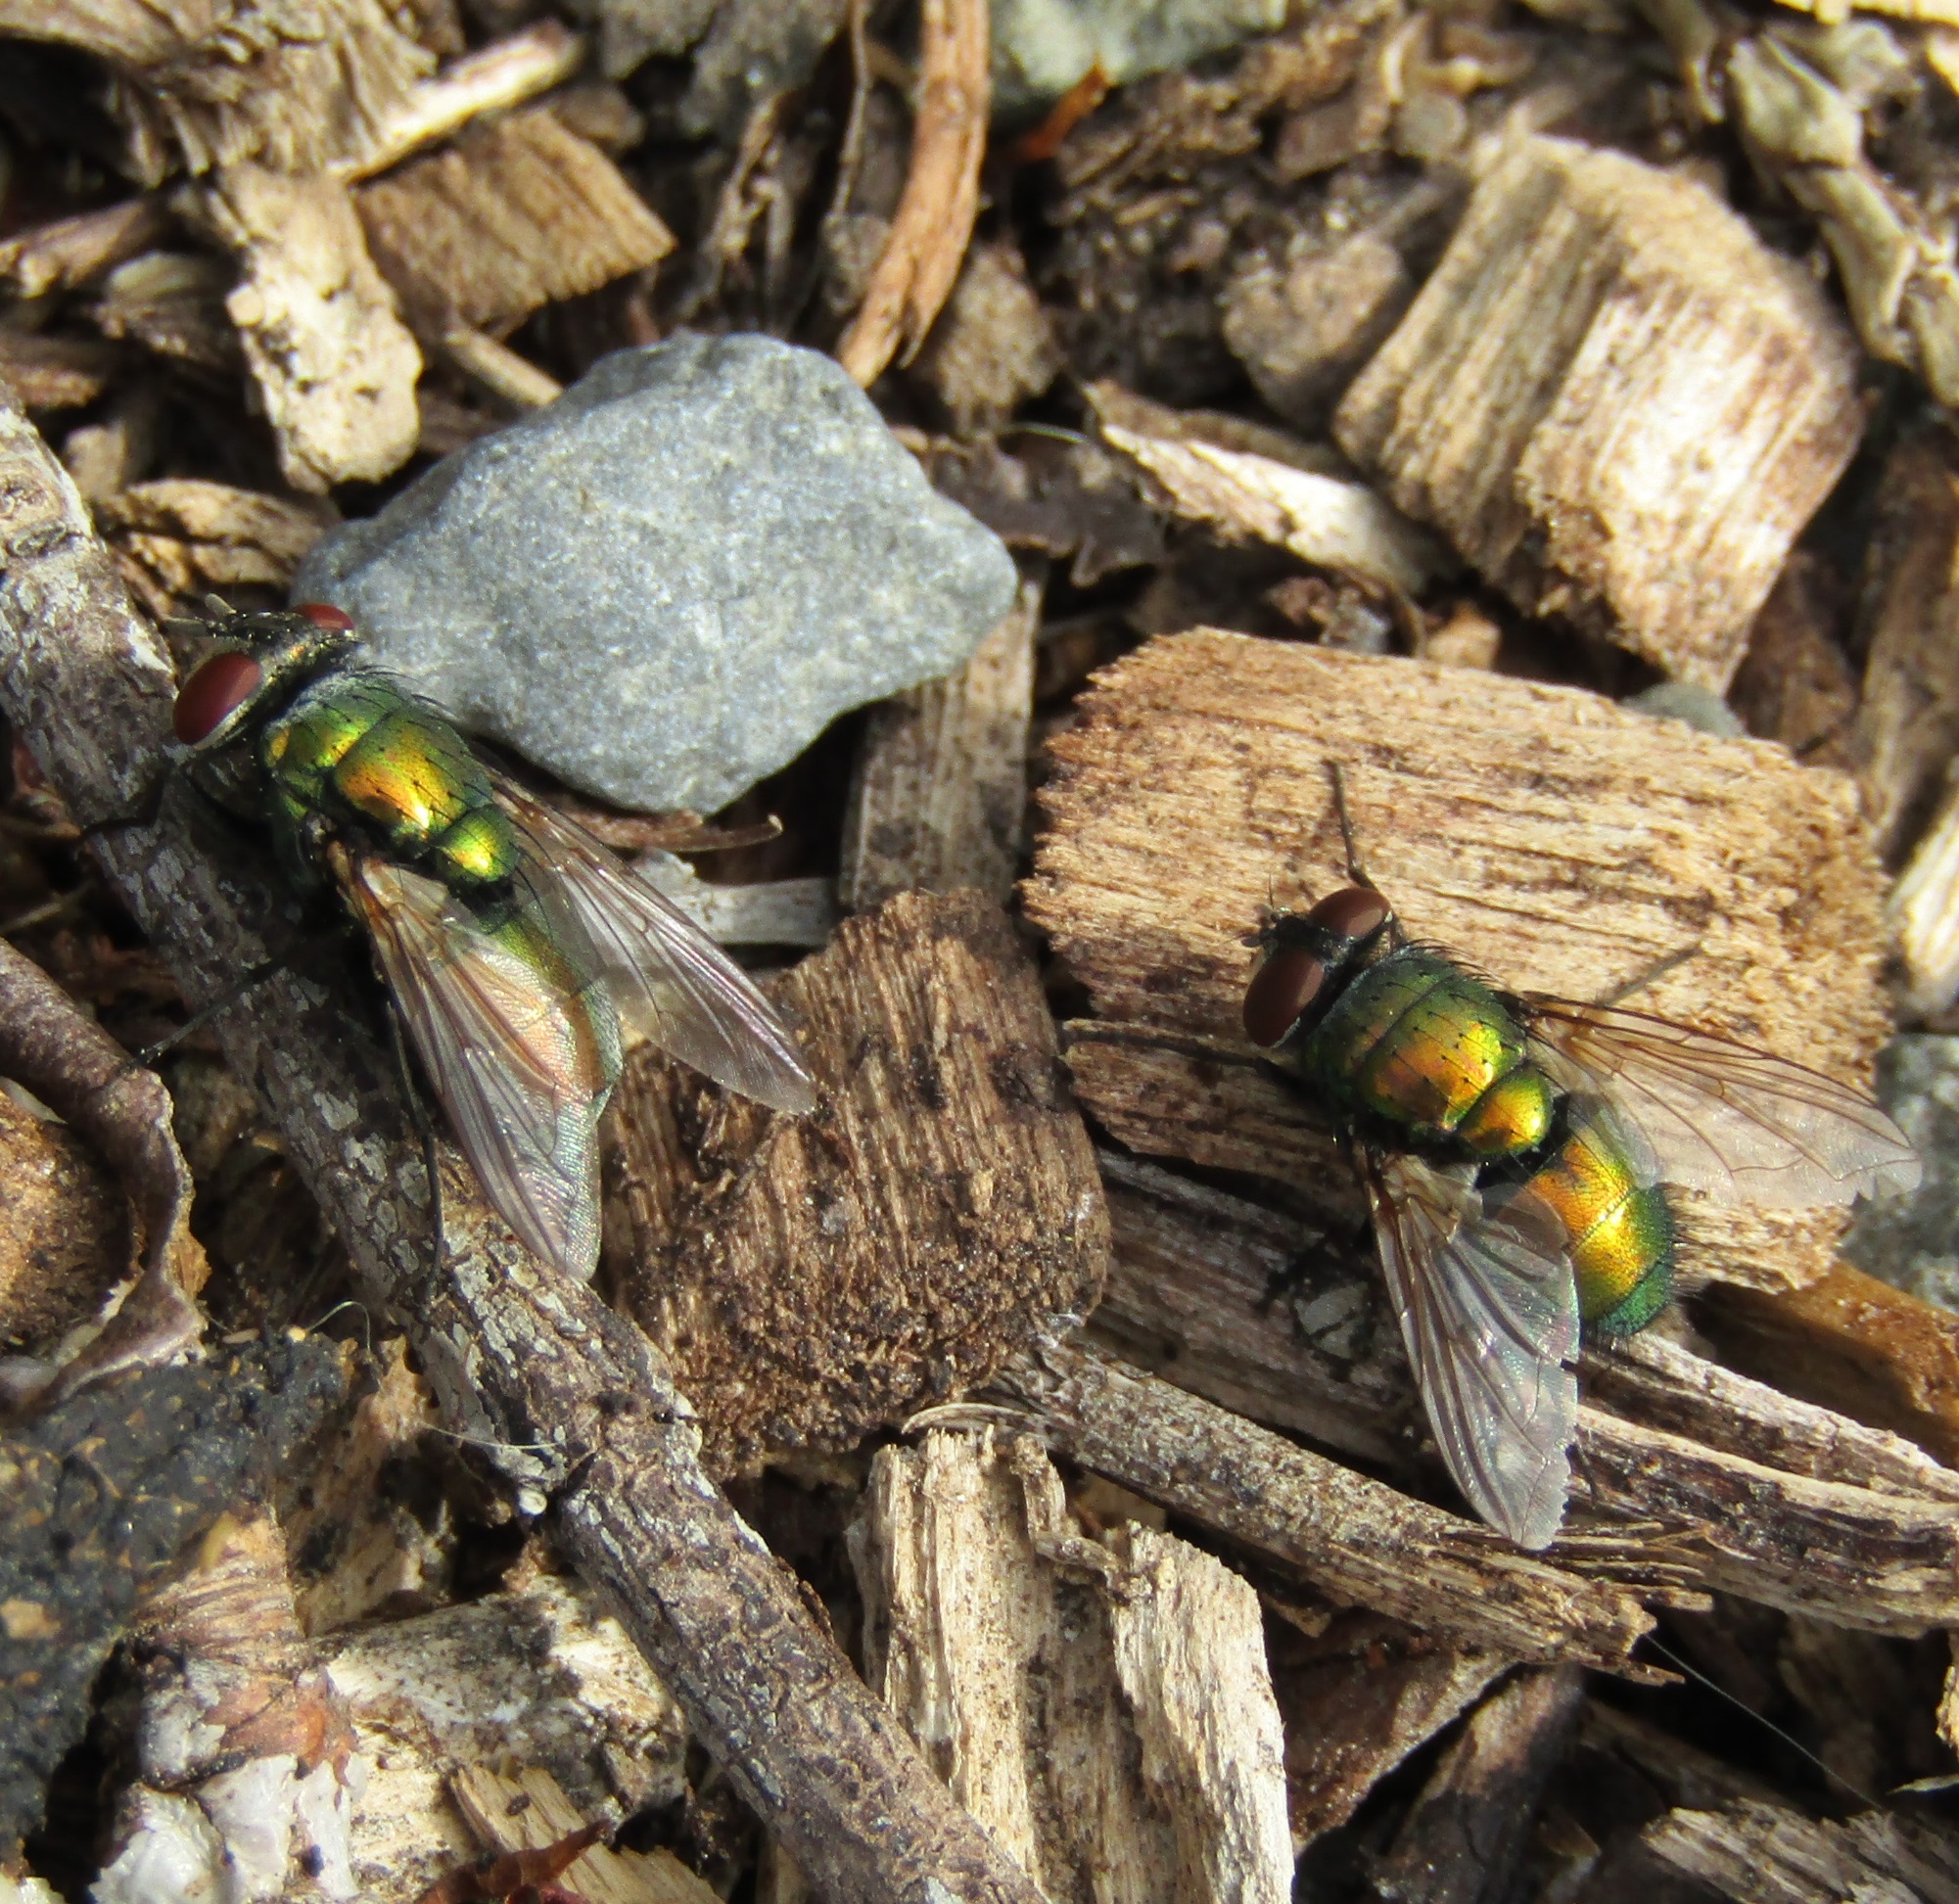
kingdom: Animalia
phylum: Arthropoda
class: Insecta
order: Diptera
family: Calliphoridae
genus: Lucilia
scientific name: Lucilia sericata
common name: Blow fly
